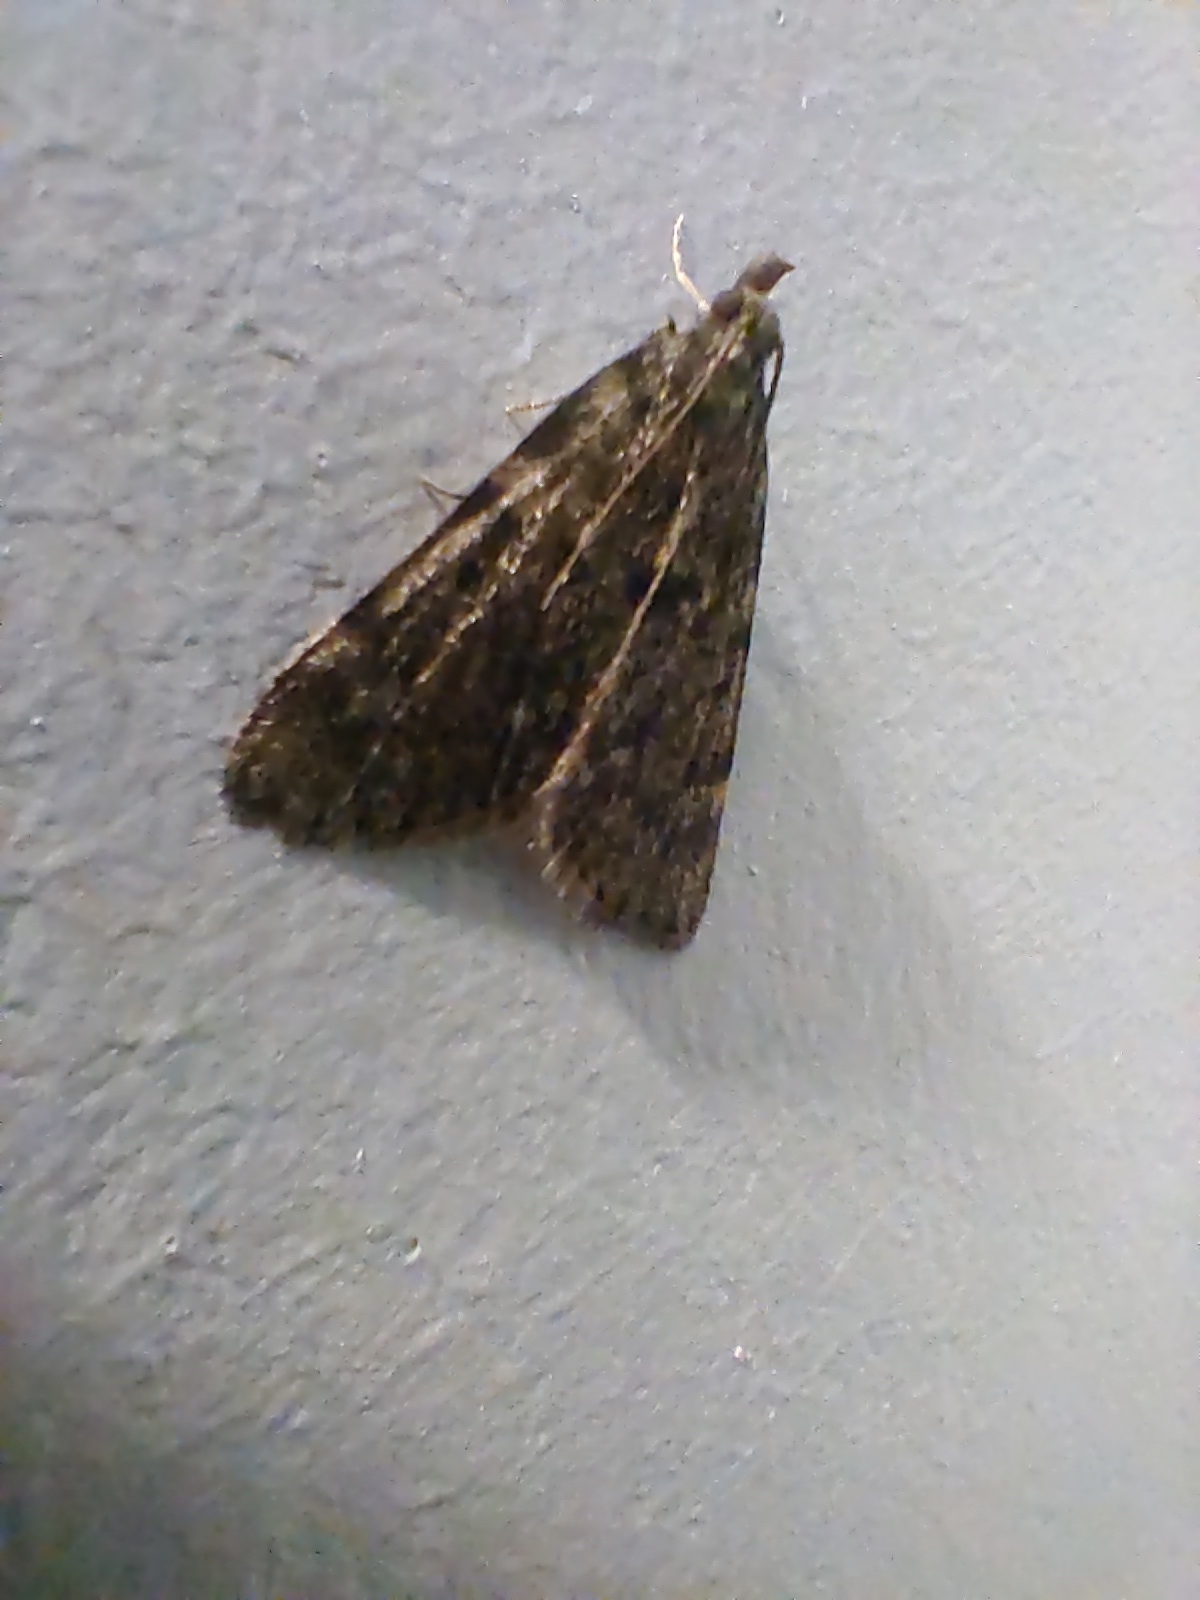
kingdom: Animalia
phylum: Arthropoda
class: Insecta
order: Lepidoptera
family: Pyralidae
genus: Aglossa
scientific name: Aglossa pinguinalis
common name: Large tabby
